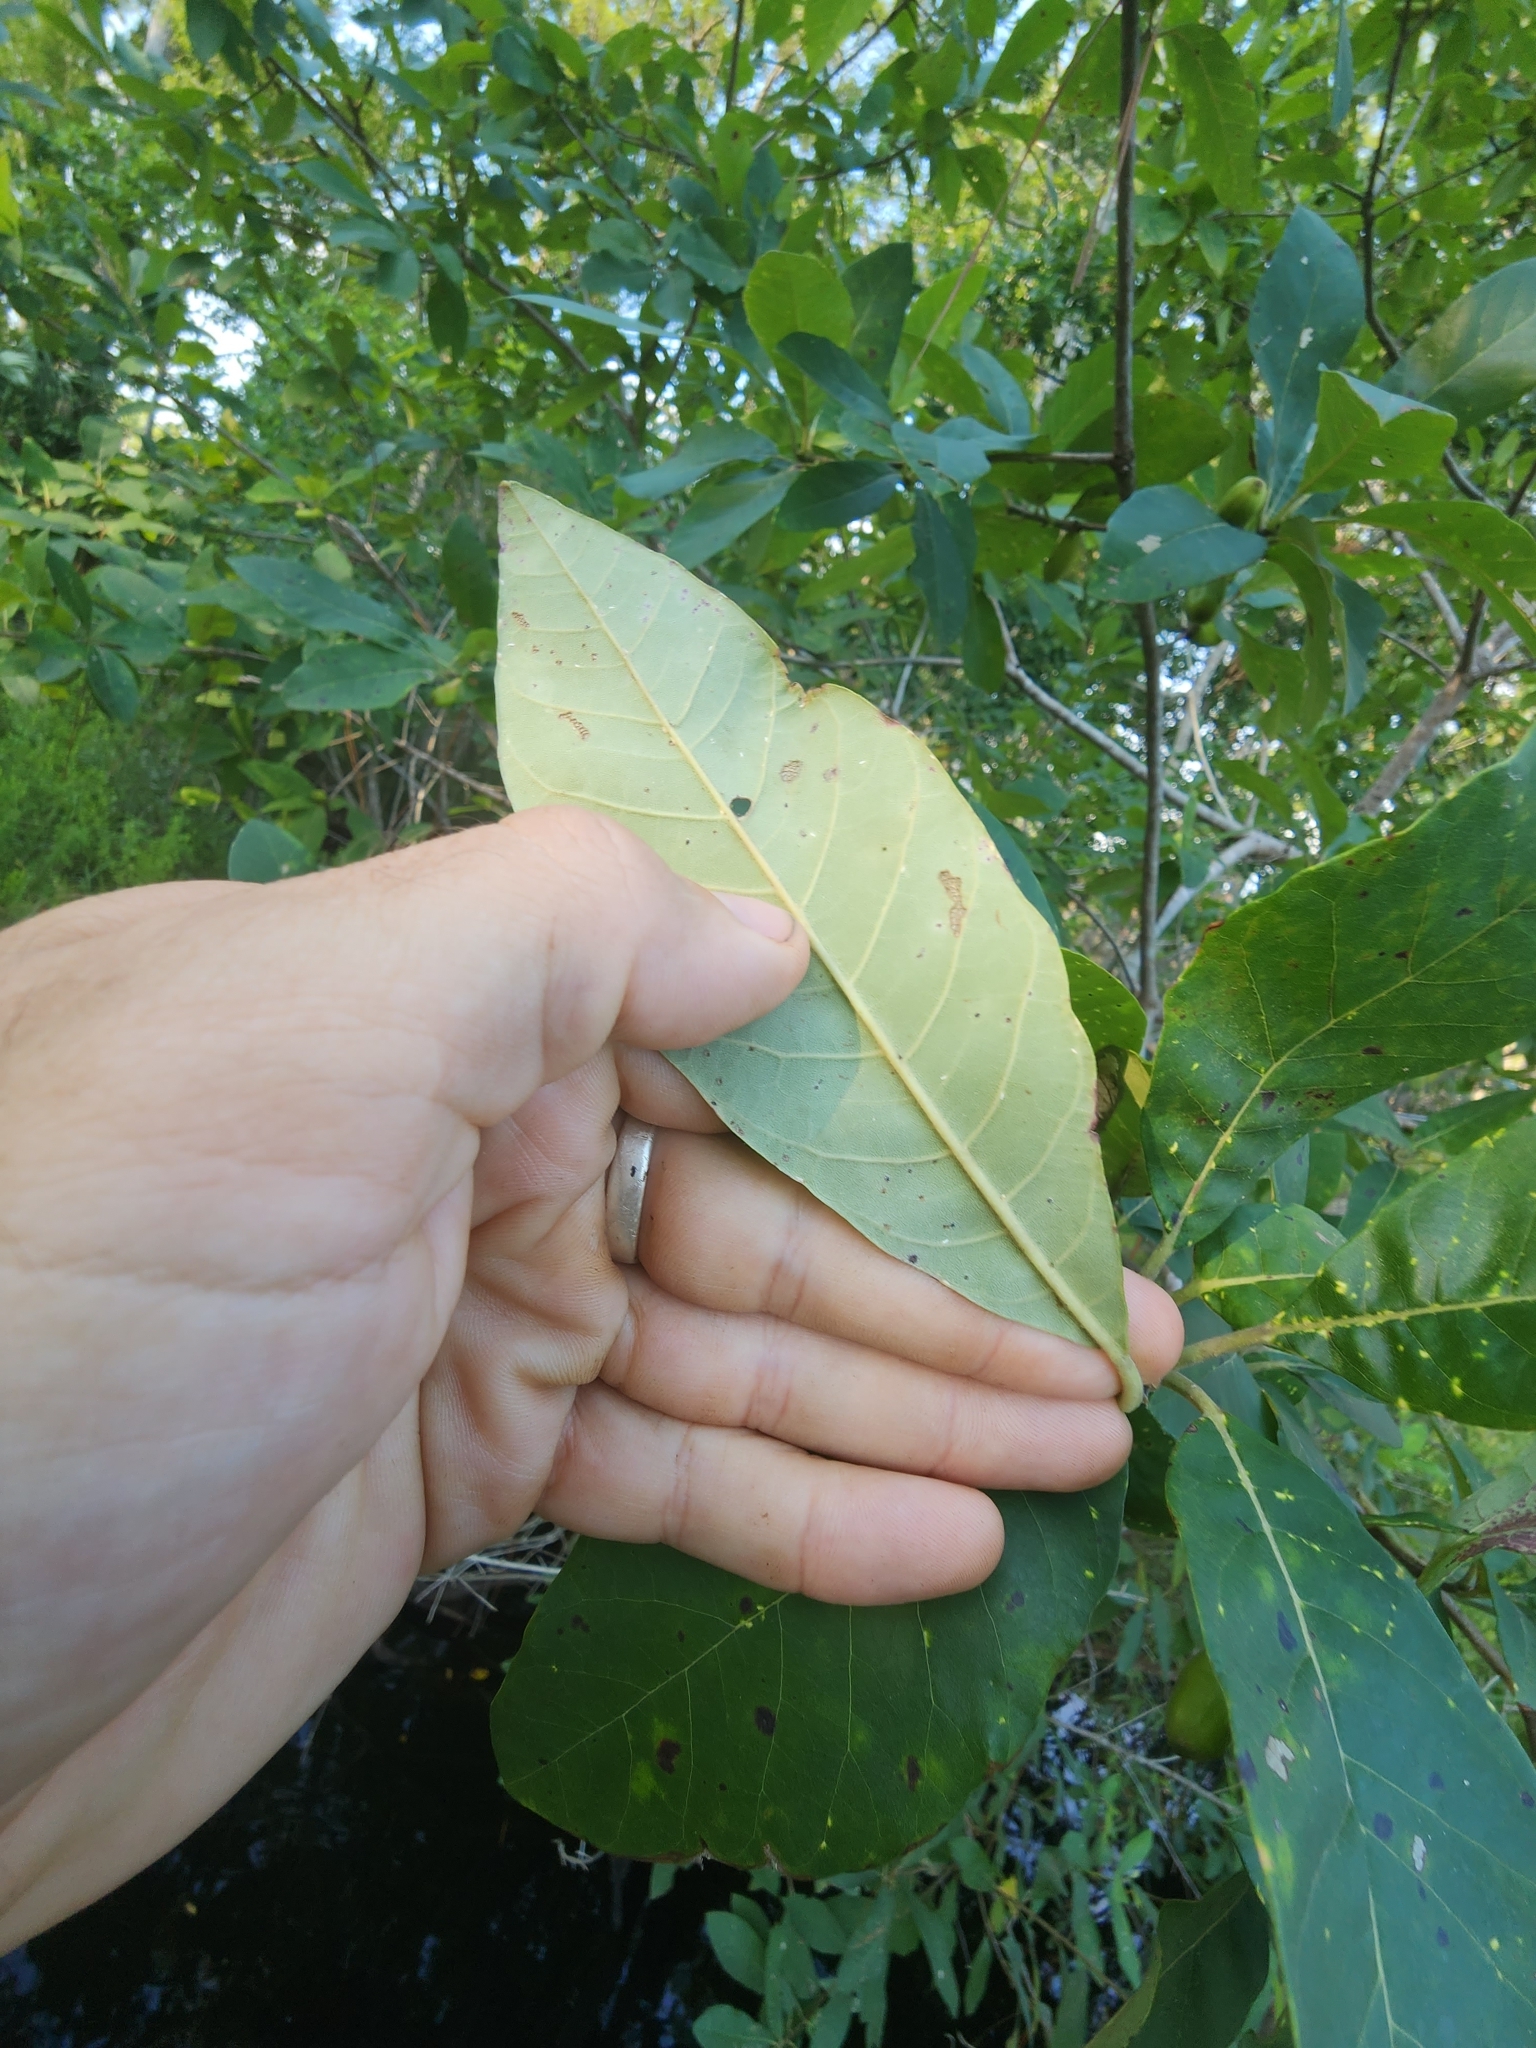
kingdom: Plantae
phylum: Tracheophyta
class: Magnoliopsida
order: Cornales
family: Nyssaceae
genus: Nyssa
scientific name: Nyssa ogeche
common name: Ogeechee tupelo
